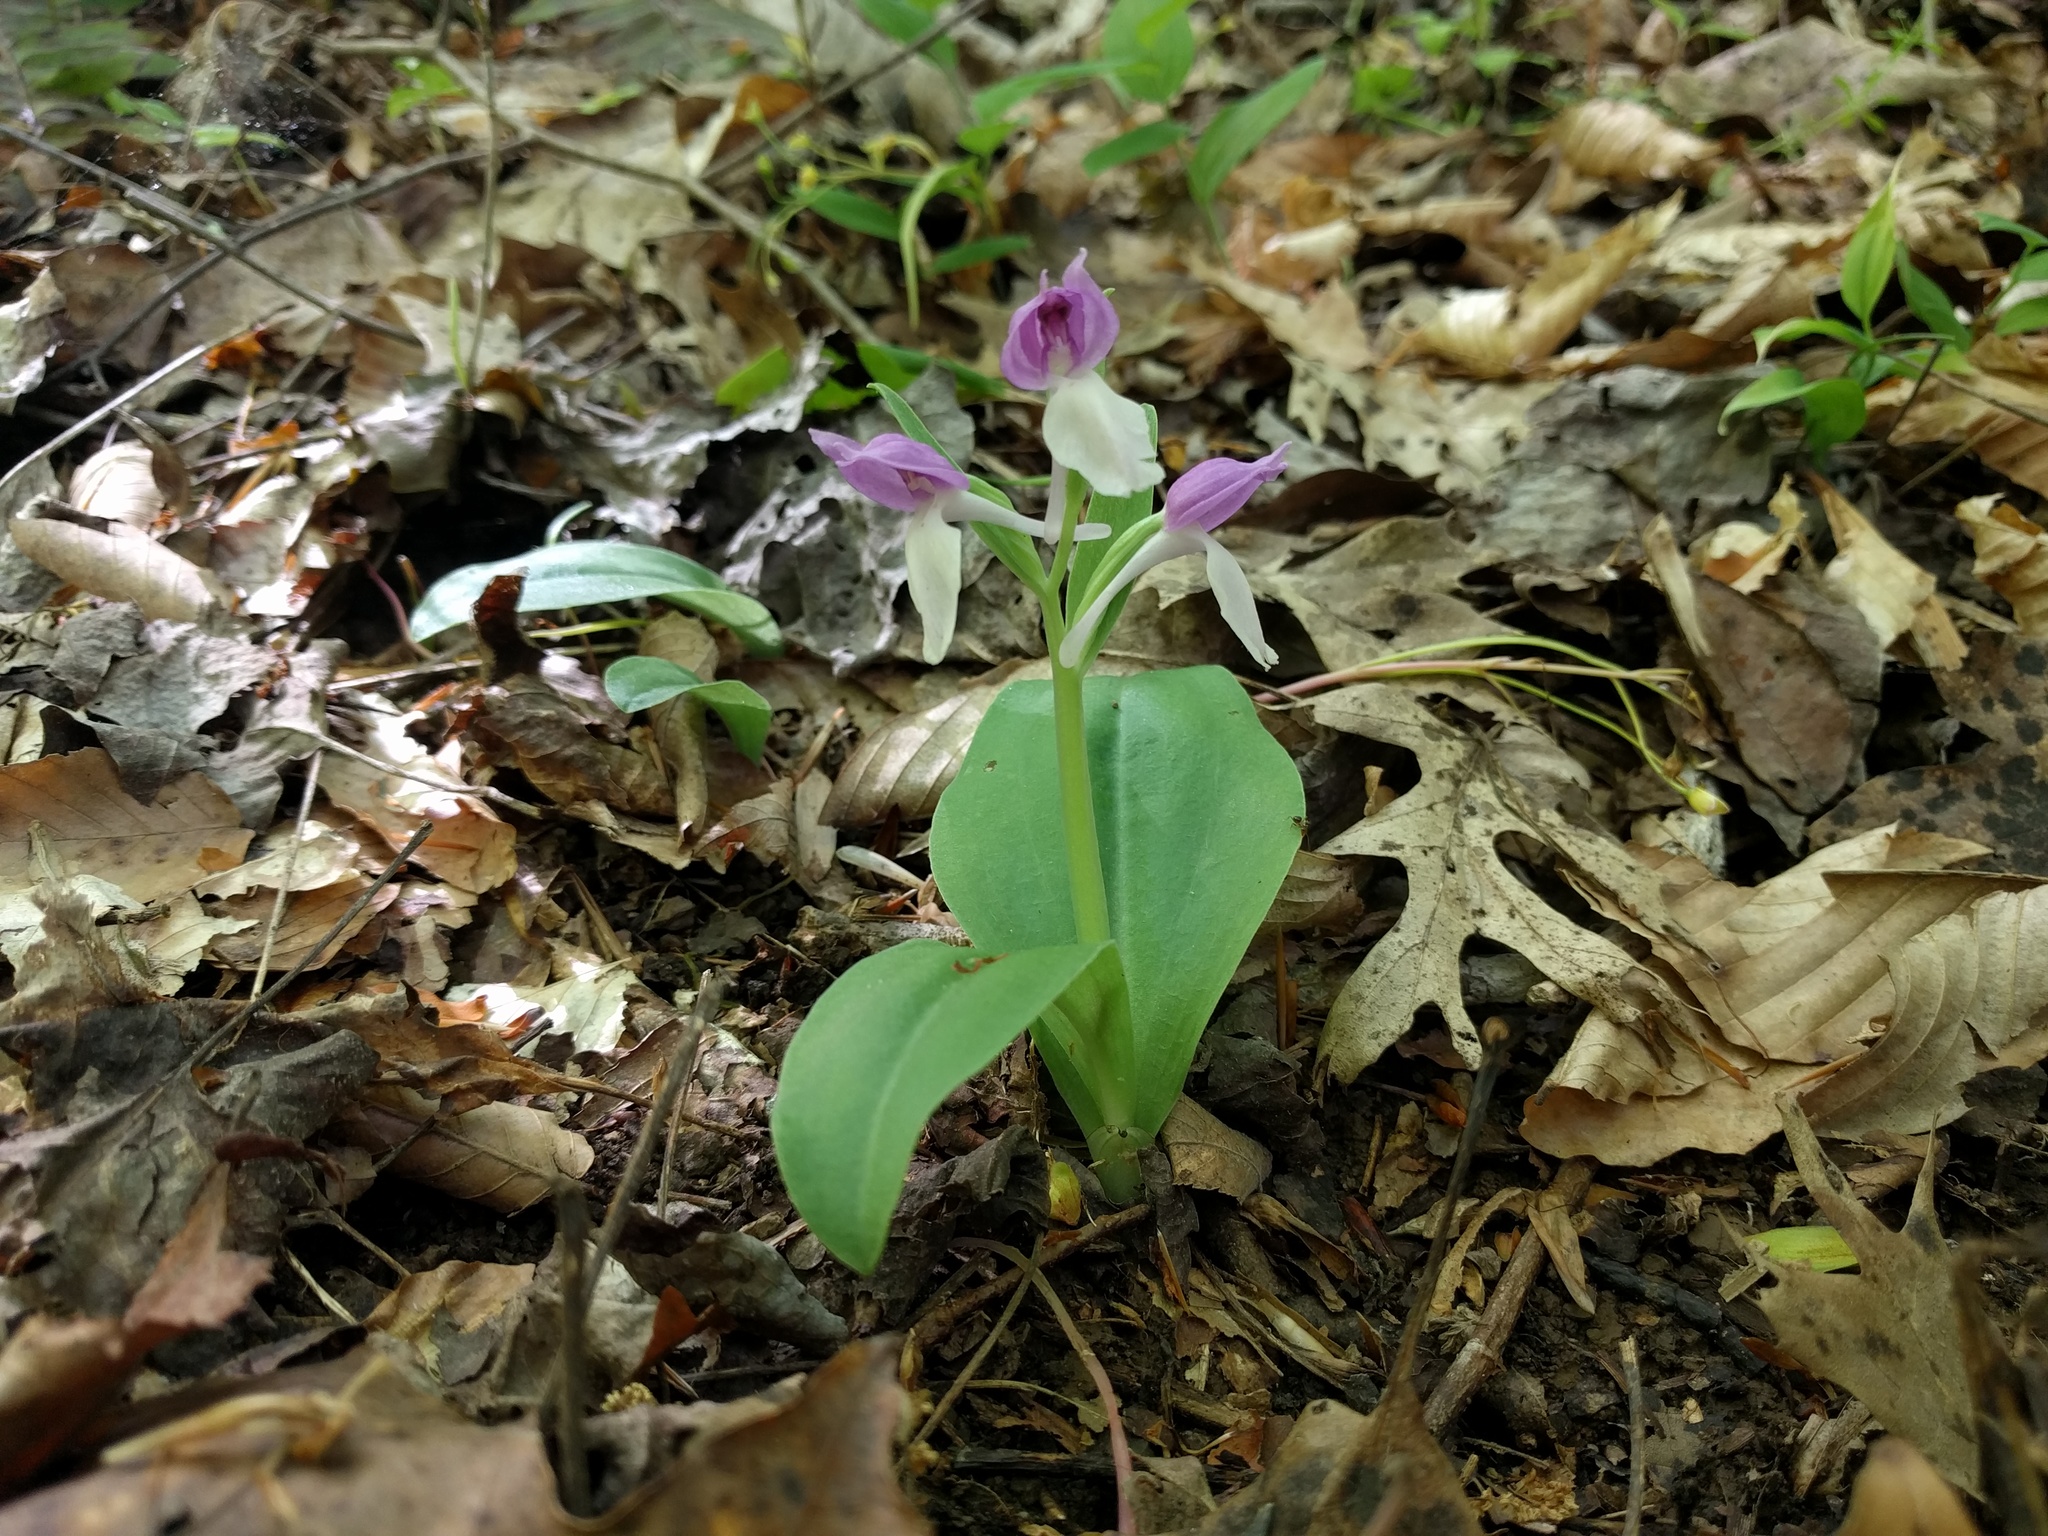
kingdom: Plantae
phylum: Tracheophyta
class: Liliopsida
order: Asparagales
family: Orchidaceae
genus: Galearis
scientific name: Galearis spectabilis
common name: Purple-hooded orchis
